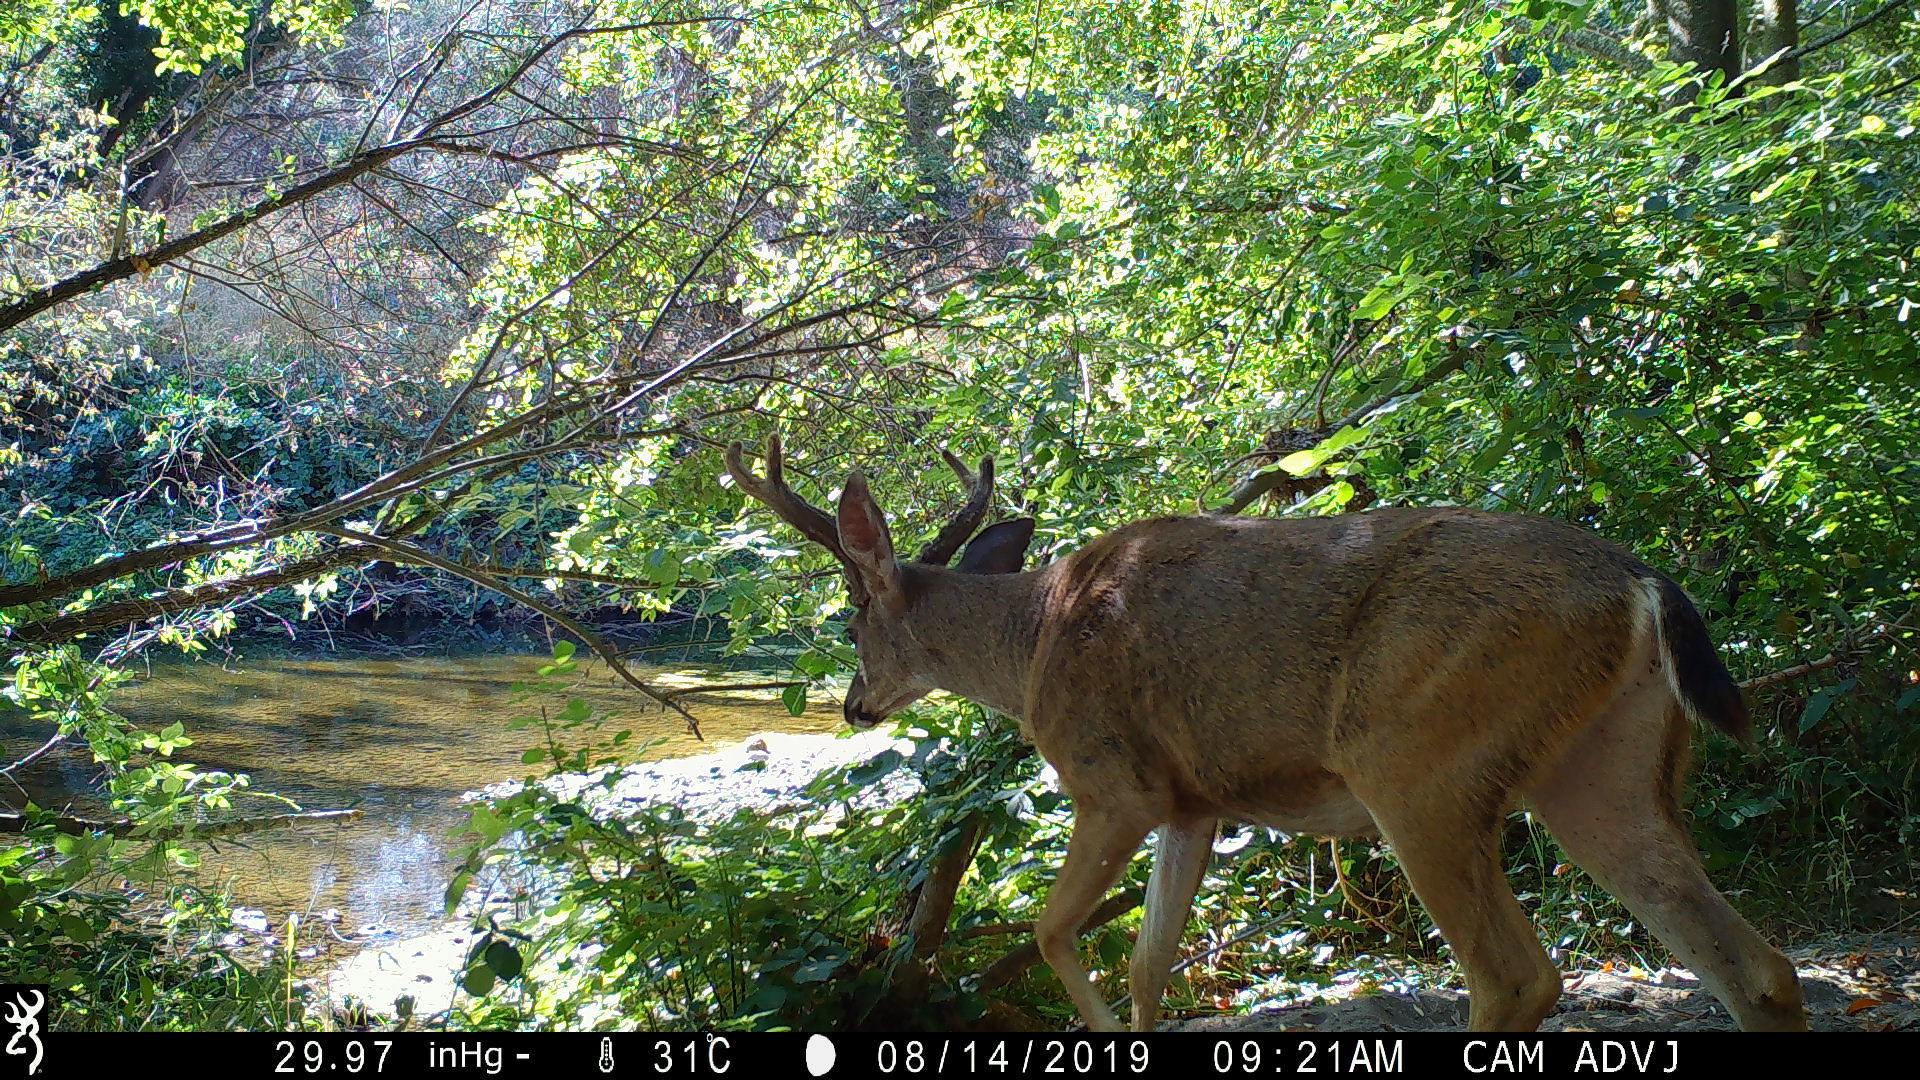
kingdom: Animalia
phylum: Chordata
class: Mammalia
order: Artiodactyla
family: Cervidae
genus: Odocoileus
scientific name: Odocoileus hemionus
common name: Mule deer
